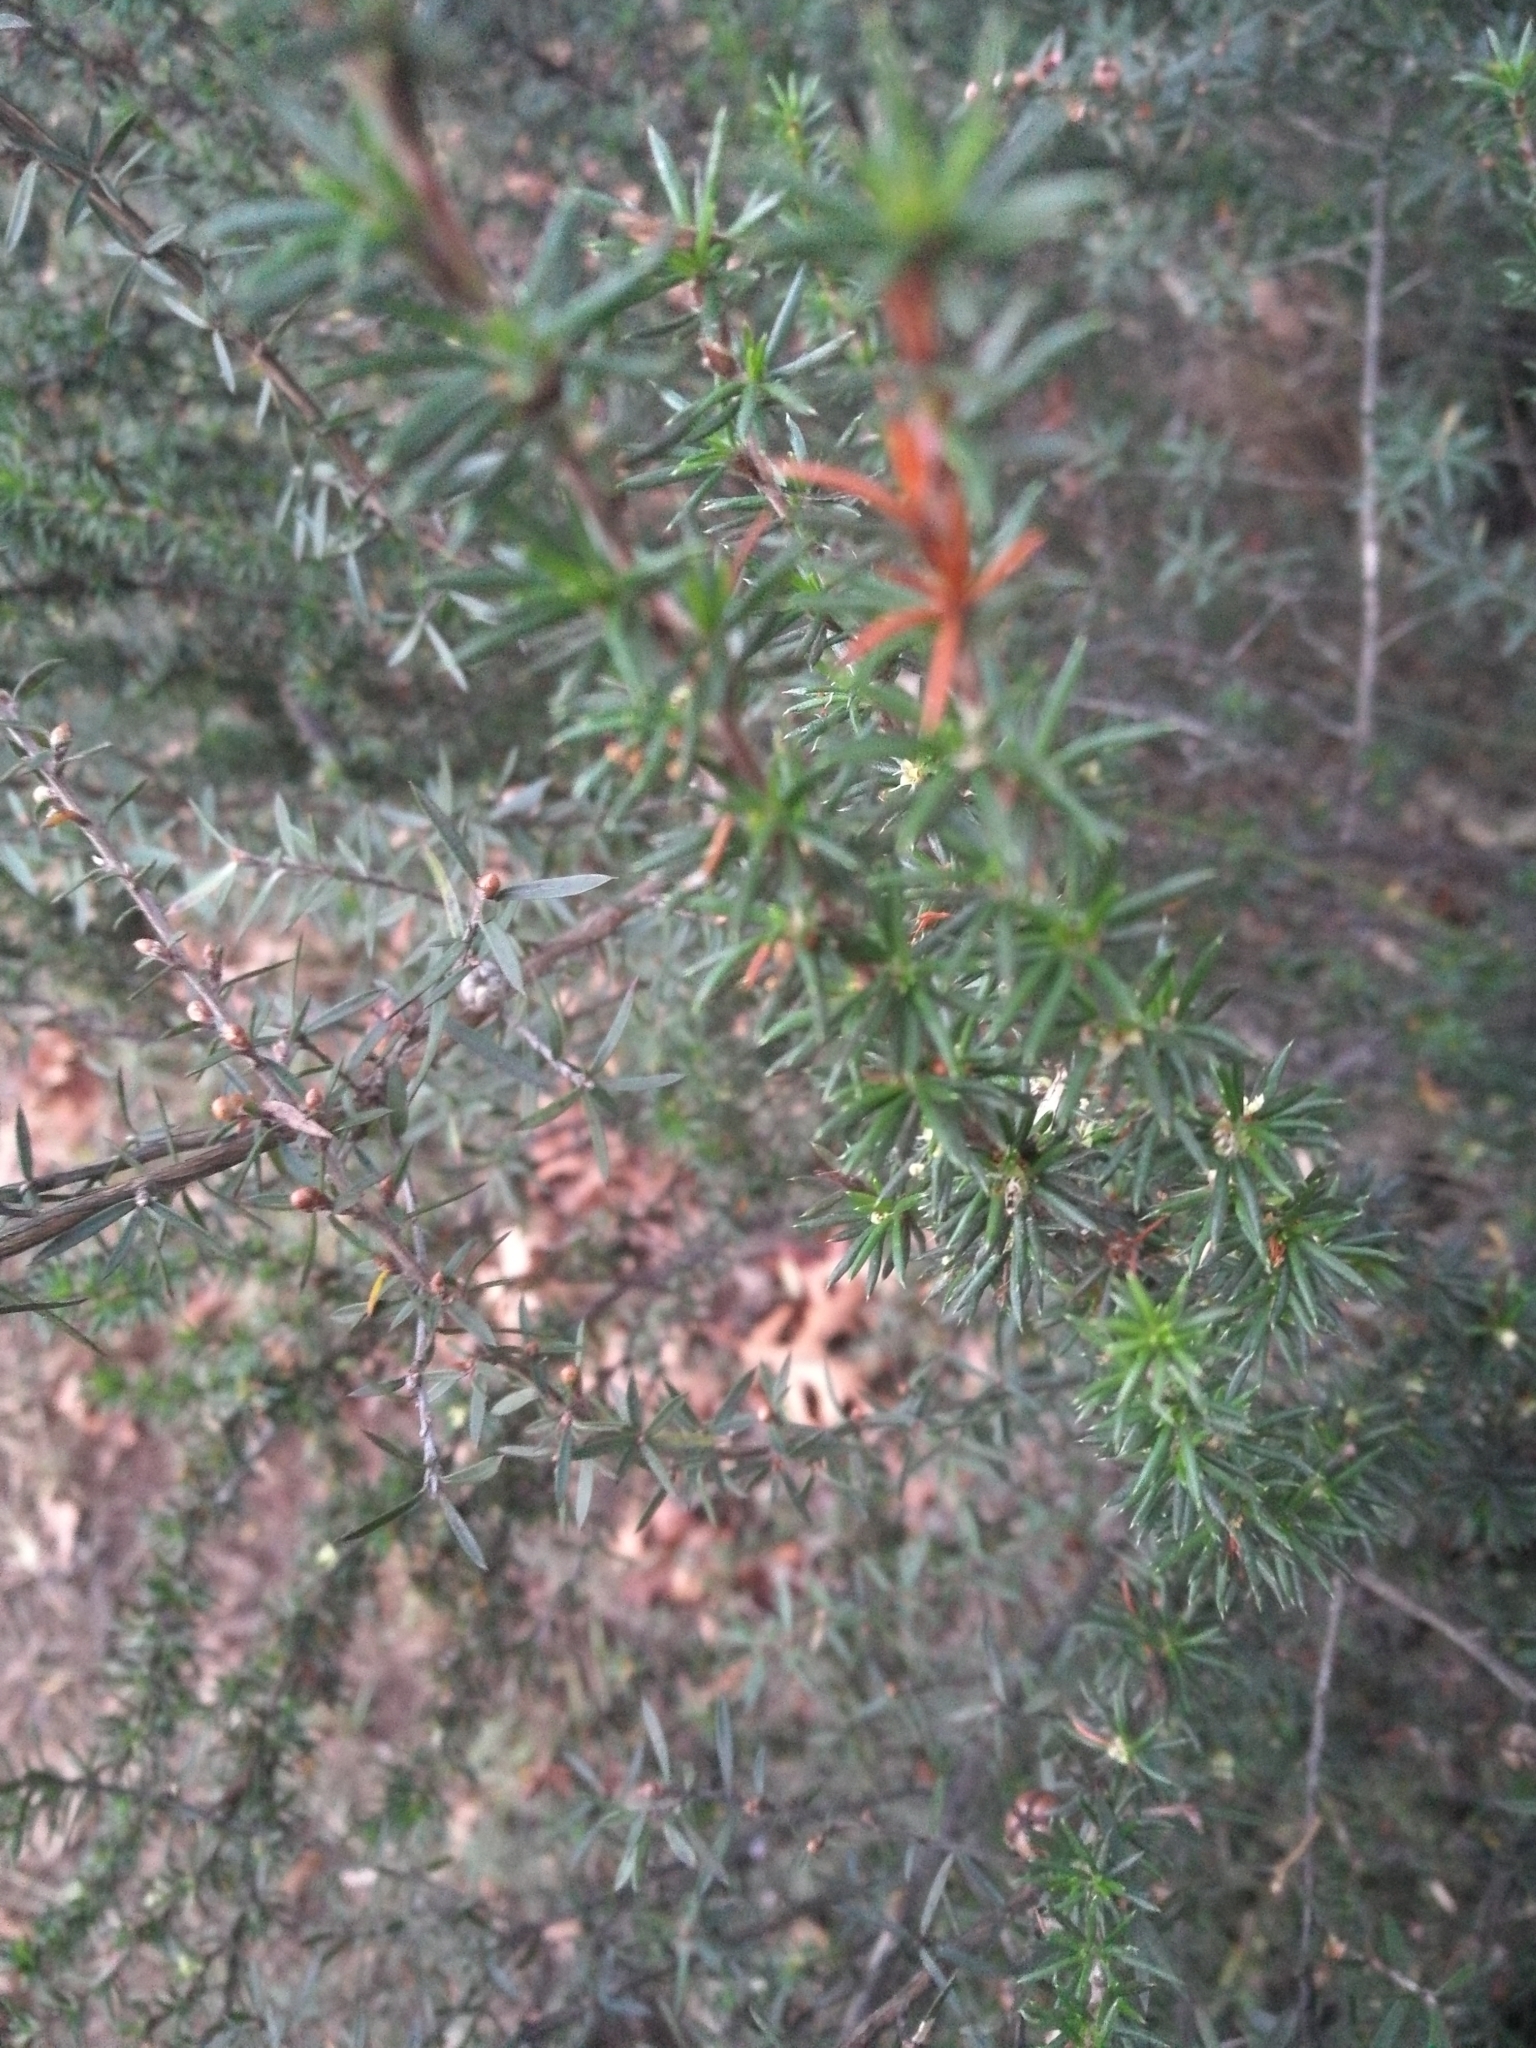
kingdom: Plantae
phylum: Tracheophyta
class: Magnoliopsida
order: Rosales
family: Rosaceae
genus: Cliffortia
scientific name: Cliffortia stricta
